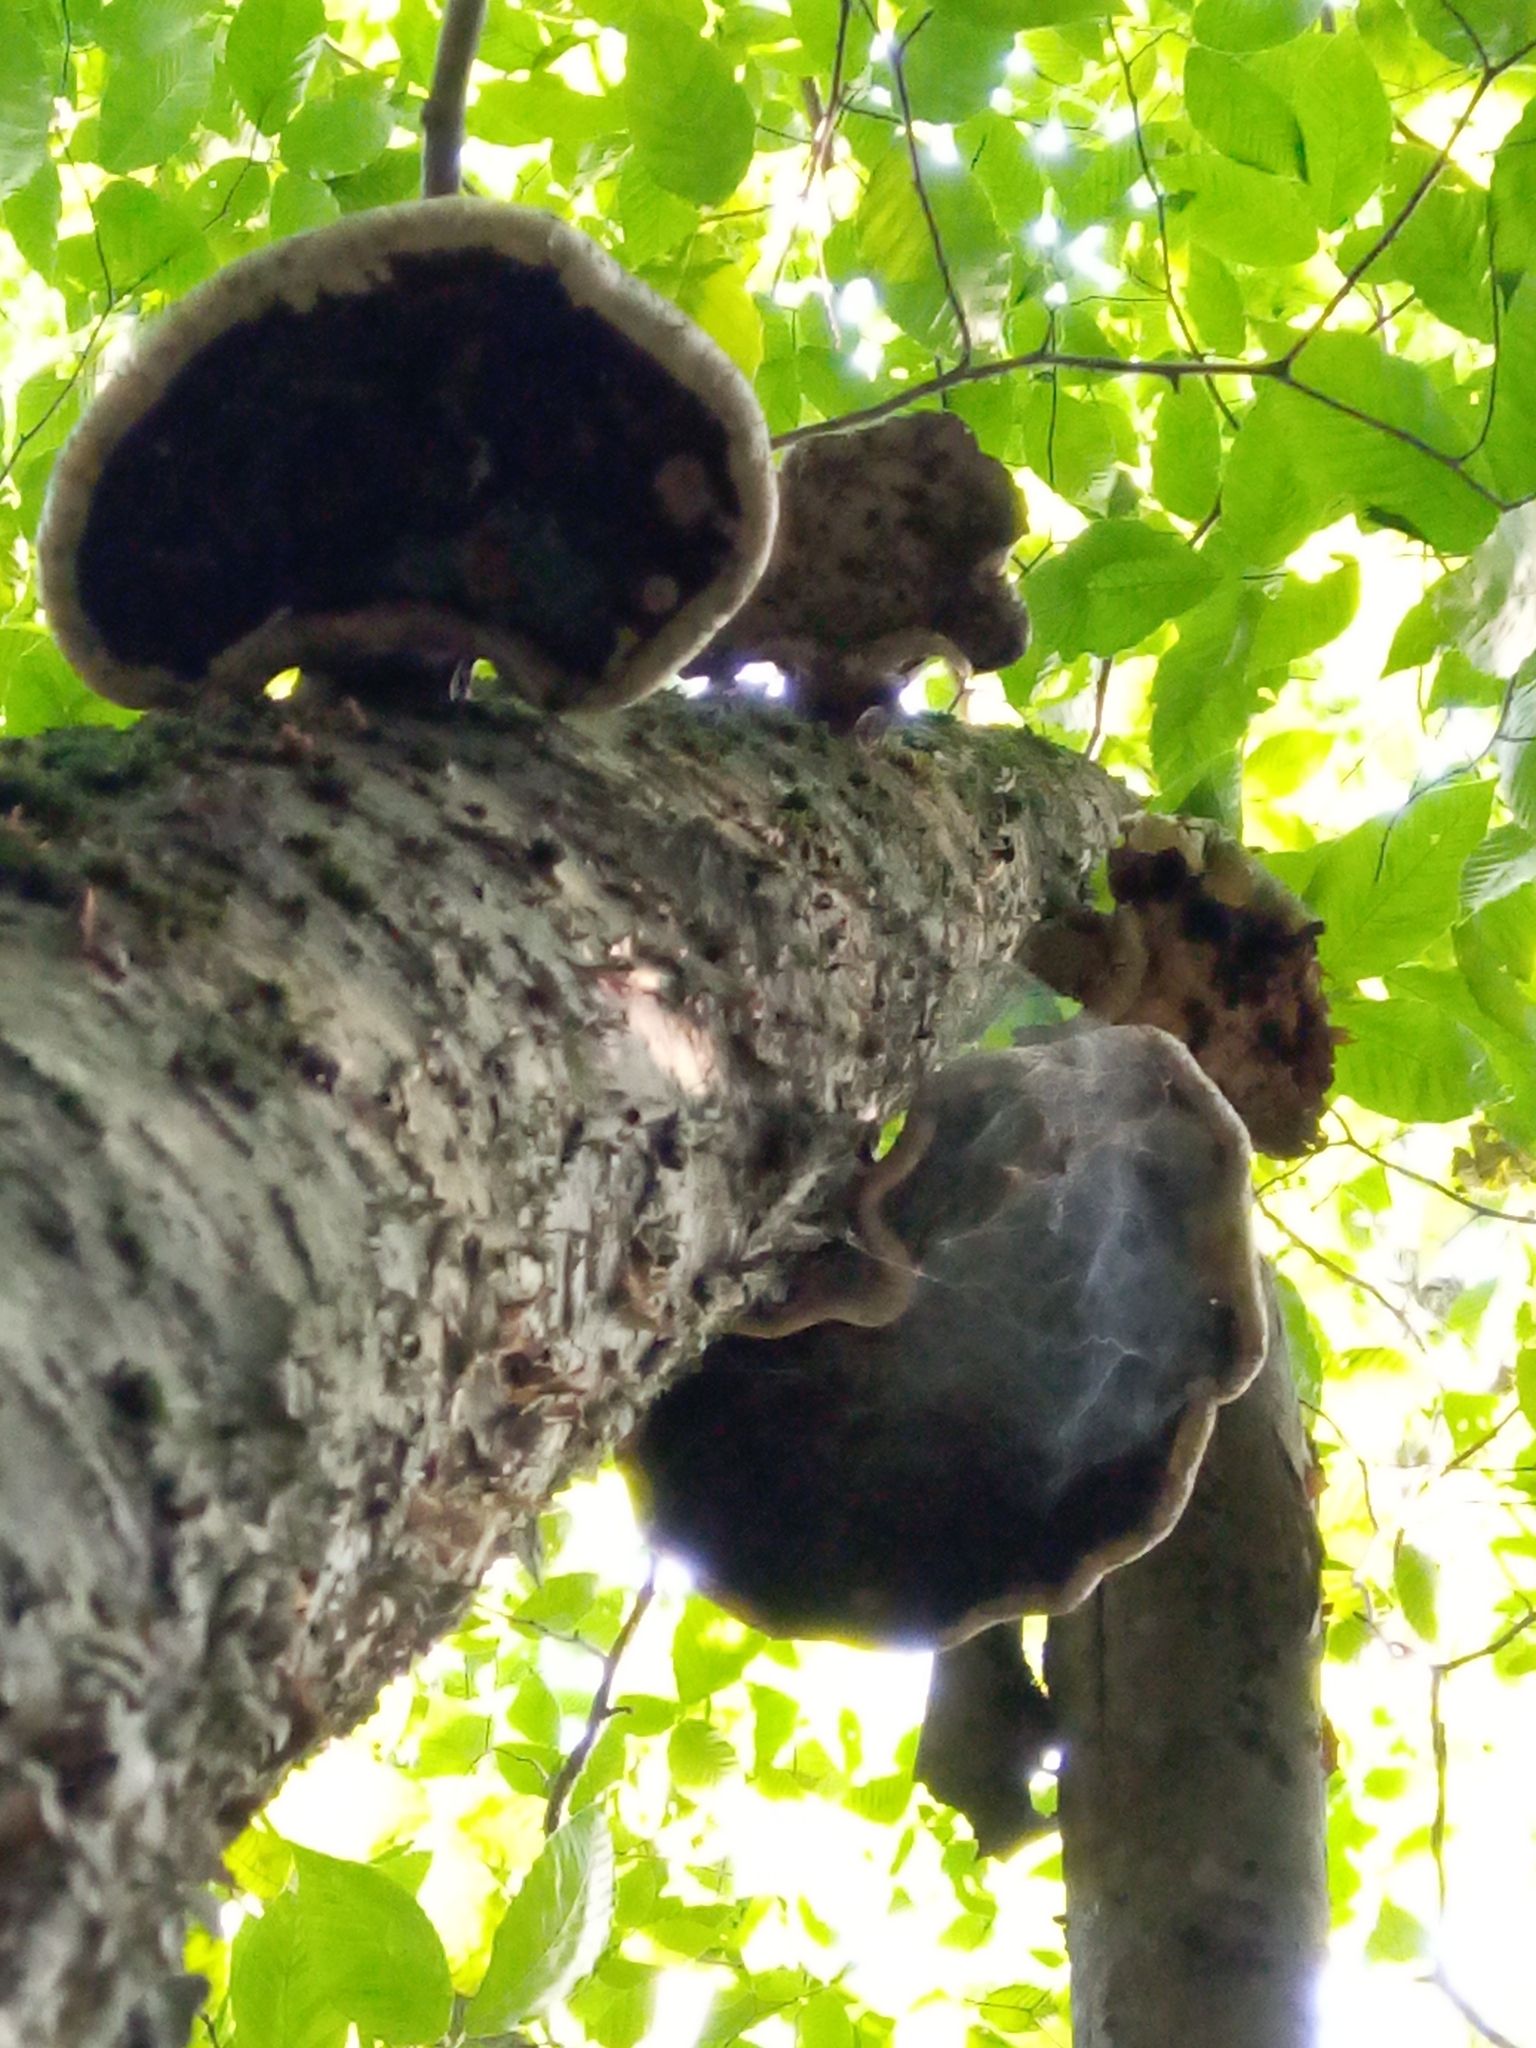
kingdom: Fungi
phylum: Basidiomycota
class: Agaricomycetes
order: Polyporales
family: Fomitopsidaceae
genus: Fomitopsis
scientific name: Fomitopsis betulina
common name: Birch polypore
